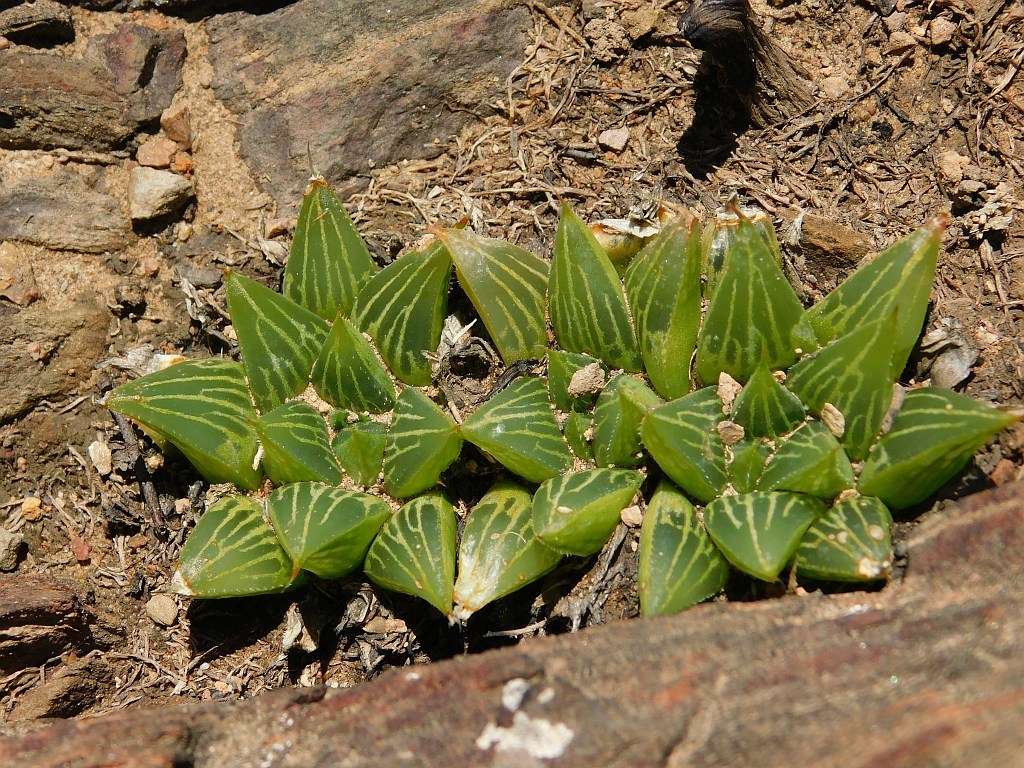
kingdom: Plantae
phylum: Tracheophyta
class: Liliopsida
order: Asparagales
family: Asphodelaceae
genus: Haworthia
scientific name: Haworthia mirabilis
